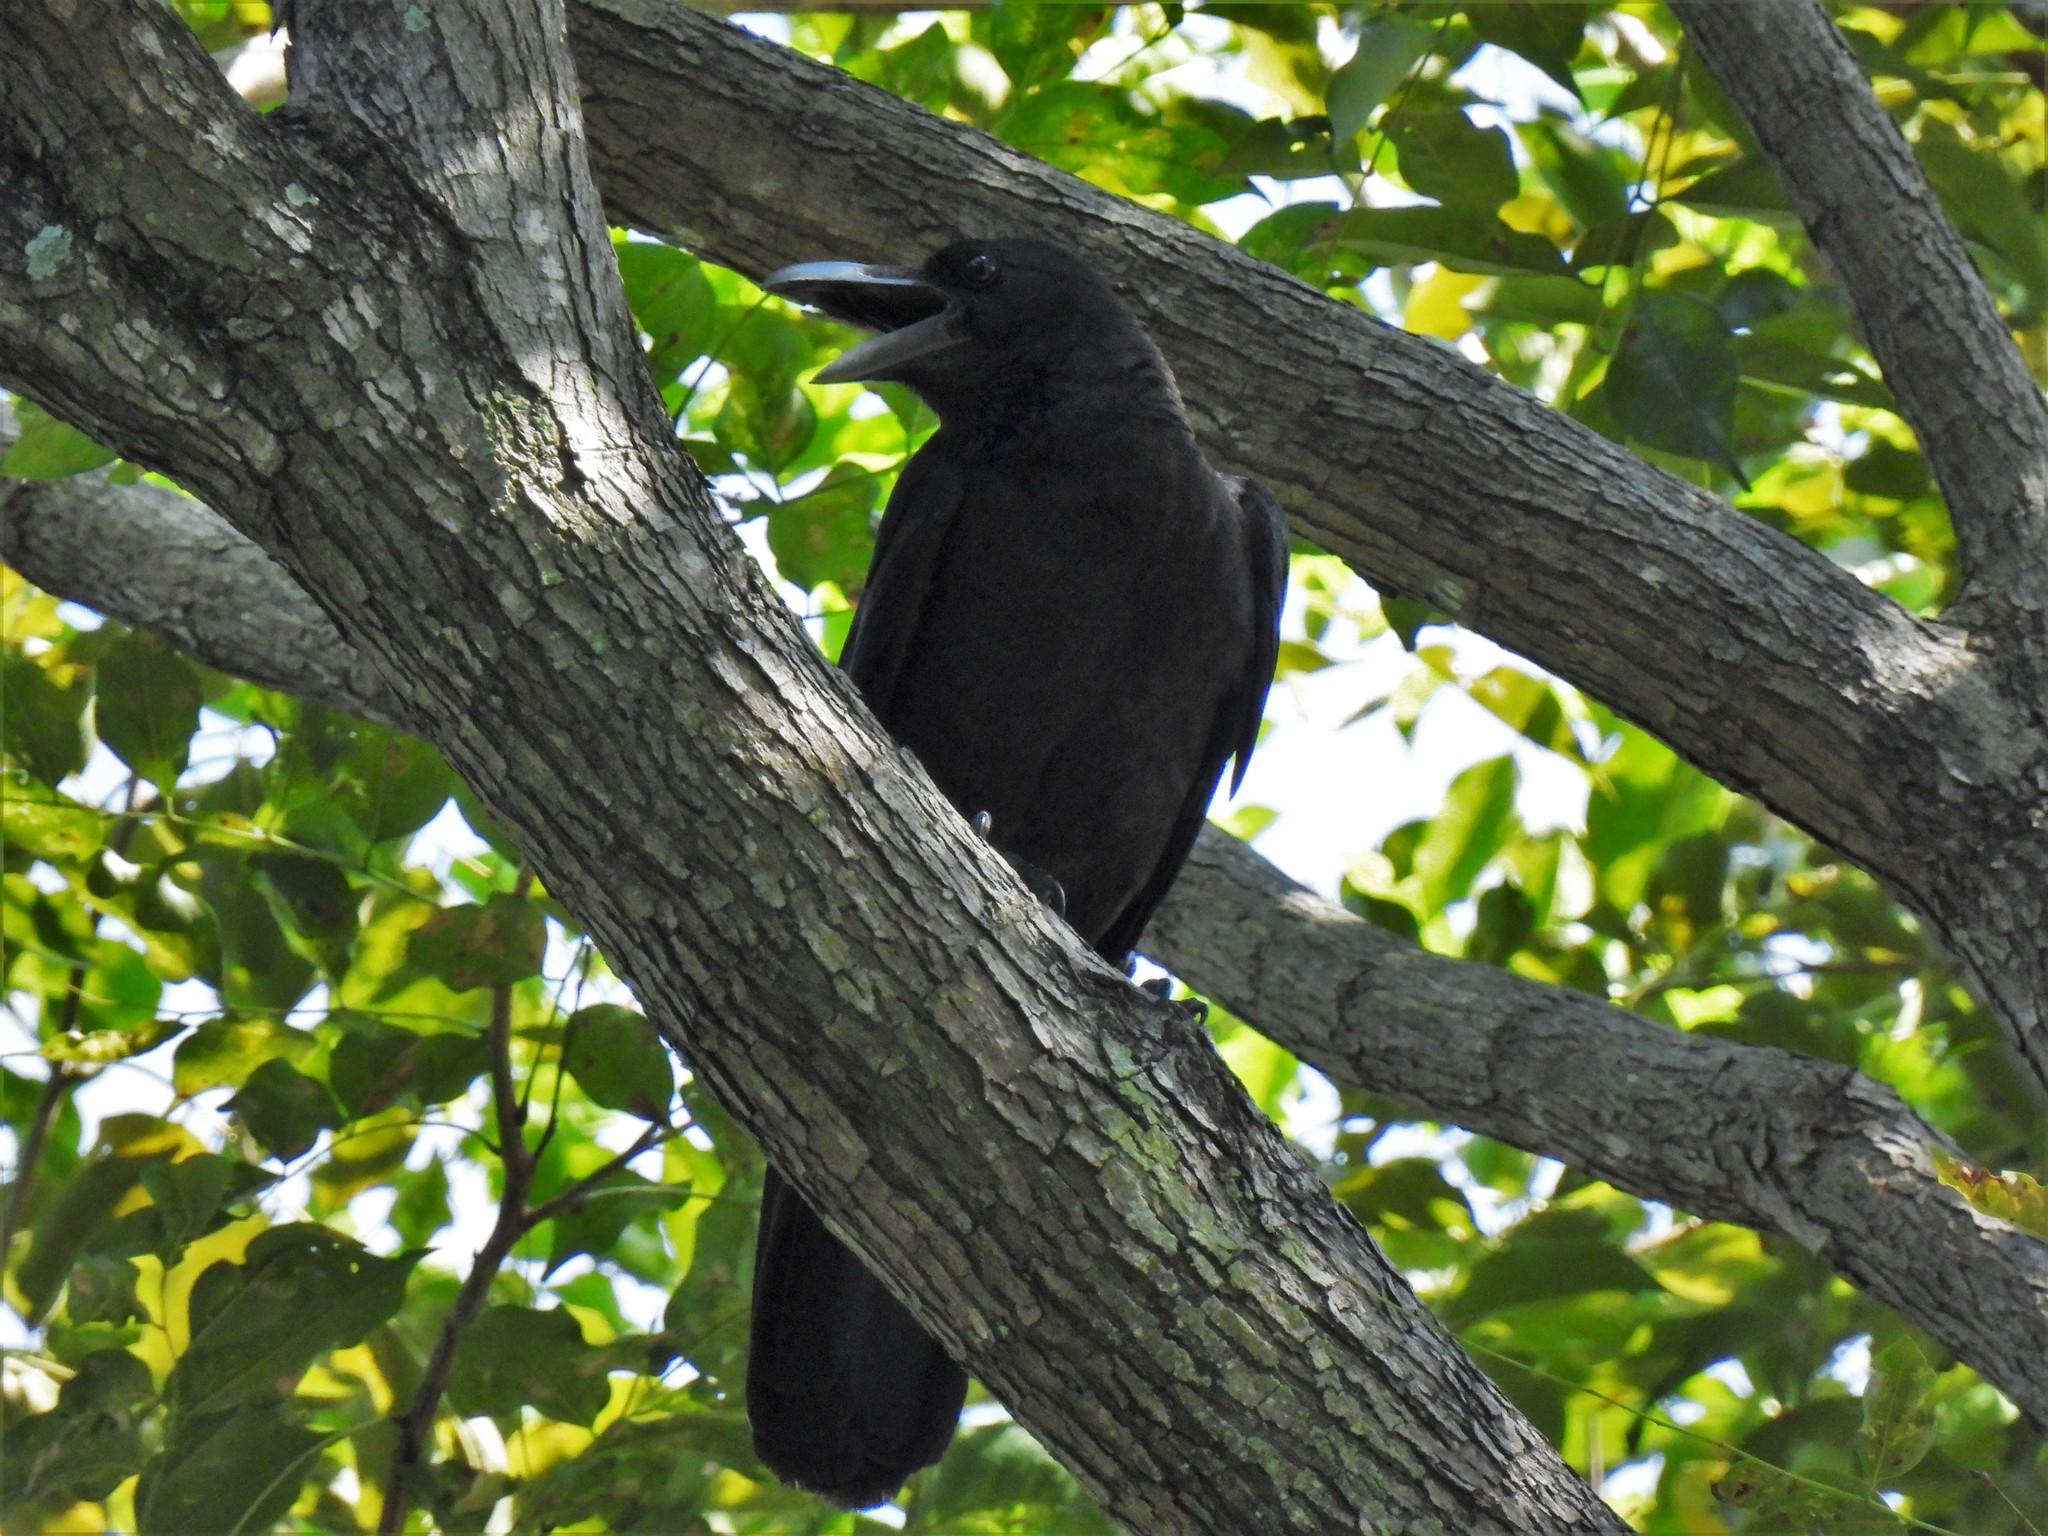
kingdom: Animalia
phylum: Chordata
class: Aves
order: Passeriformes
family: Corvidae
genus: Corvus
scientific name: Corvus macrorhynchos
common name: Large-billed crow
